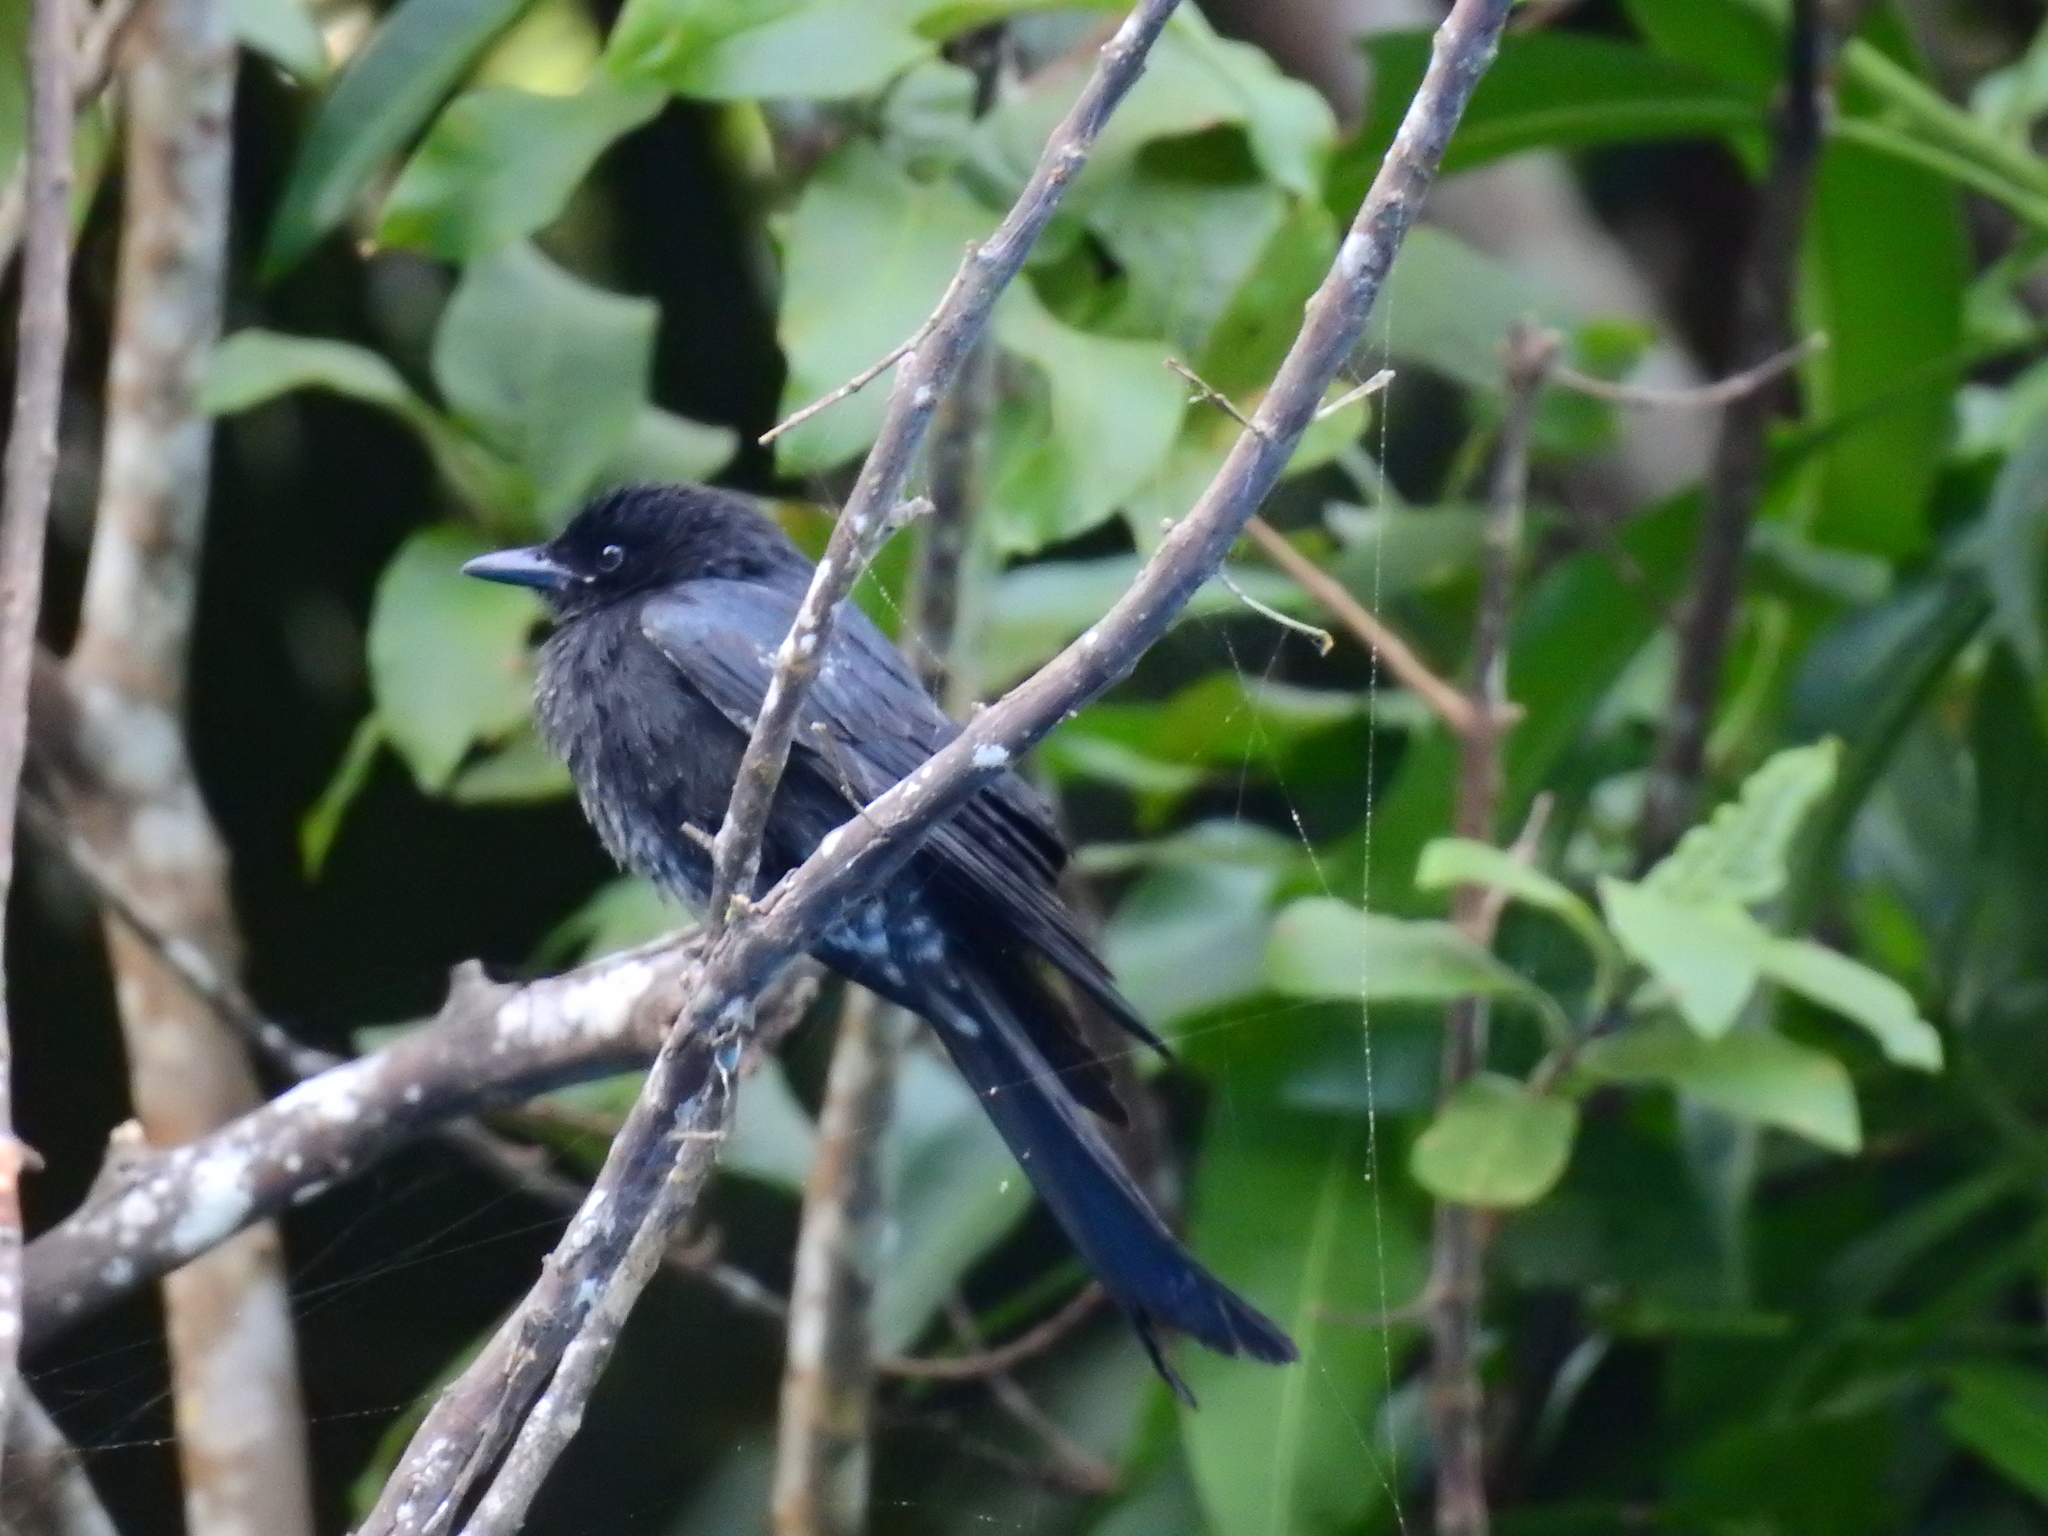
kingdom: Animalia
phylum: Chordata
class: Aves
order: Passeriformes
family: Dicruridae
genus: Dicrurus
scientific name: Dicrurus macrocercus
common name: Black drongo
